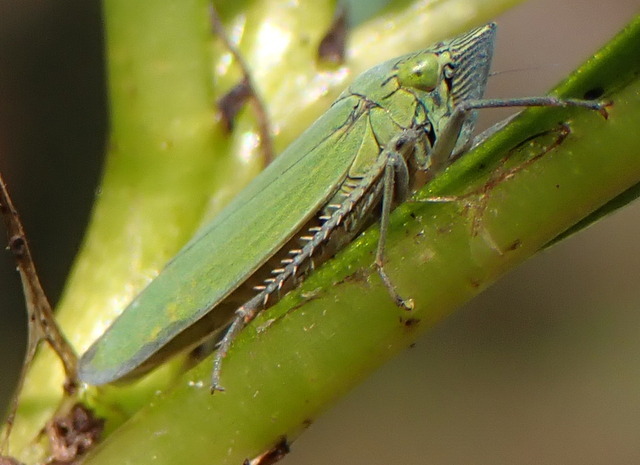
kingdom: Animalia
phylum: Arthropoda
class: Insecta
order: Hemiptera
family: Cicadellidae
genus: Draeculacephala
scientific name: Draeculacephala inscripta
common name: Leafhopper
